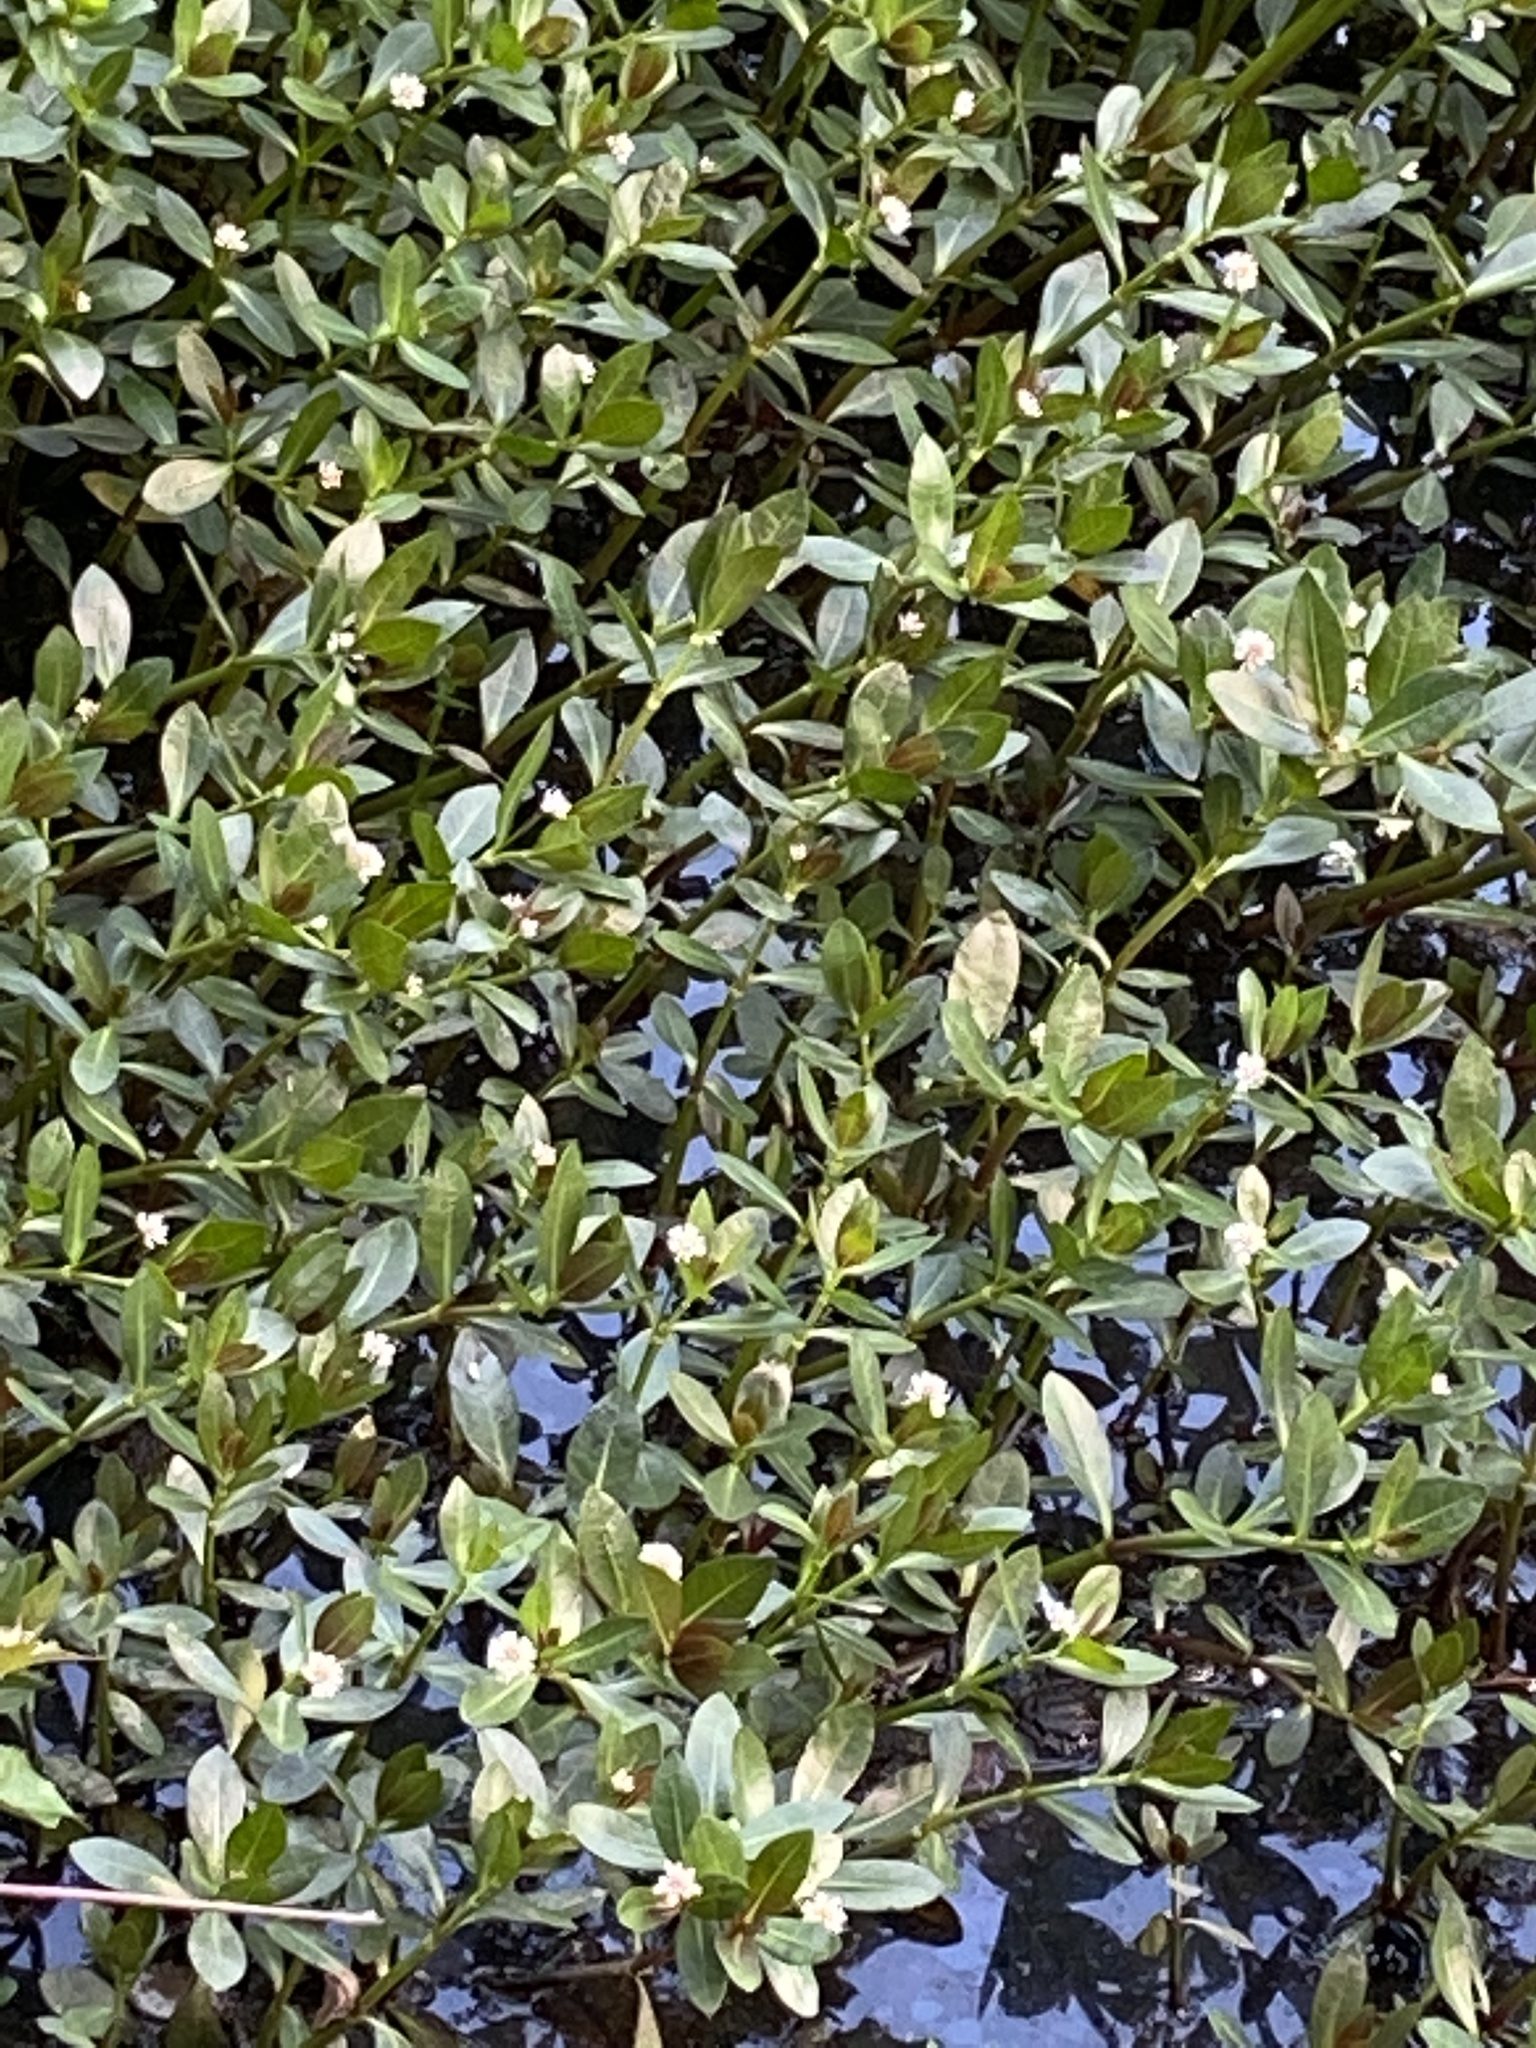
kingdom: Plantae
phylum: Tracheophyta
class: Magnoliopsida
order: Caryophyllales
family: Amaranthaceae
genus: Alternanthera
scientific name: Alternanthera philoxeroides
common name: Alligatorweed
